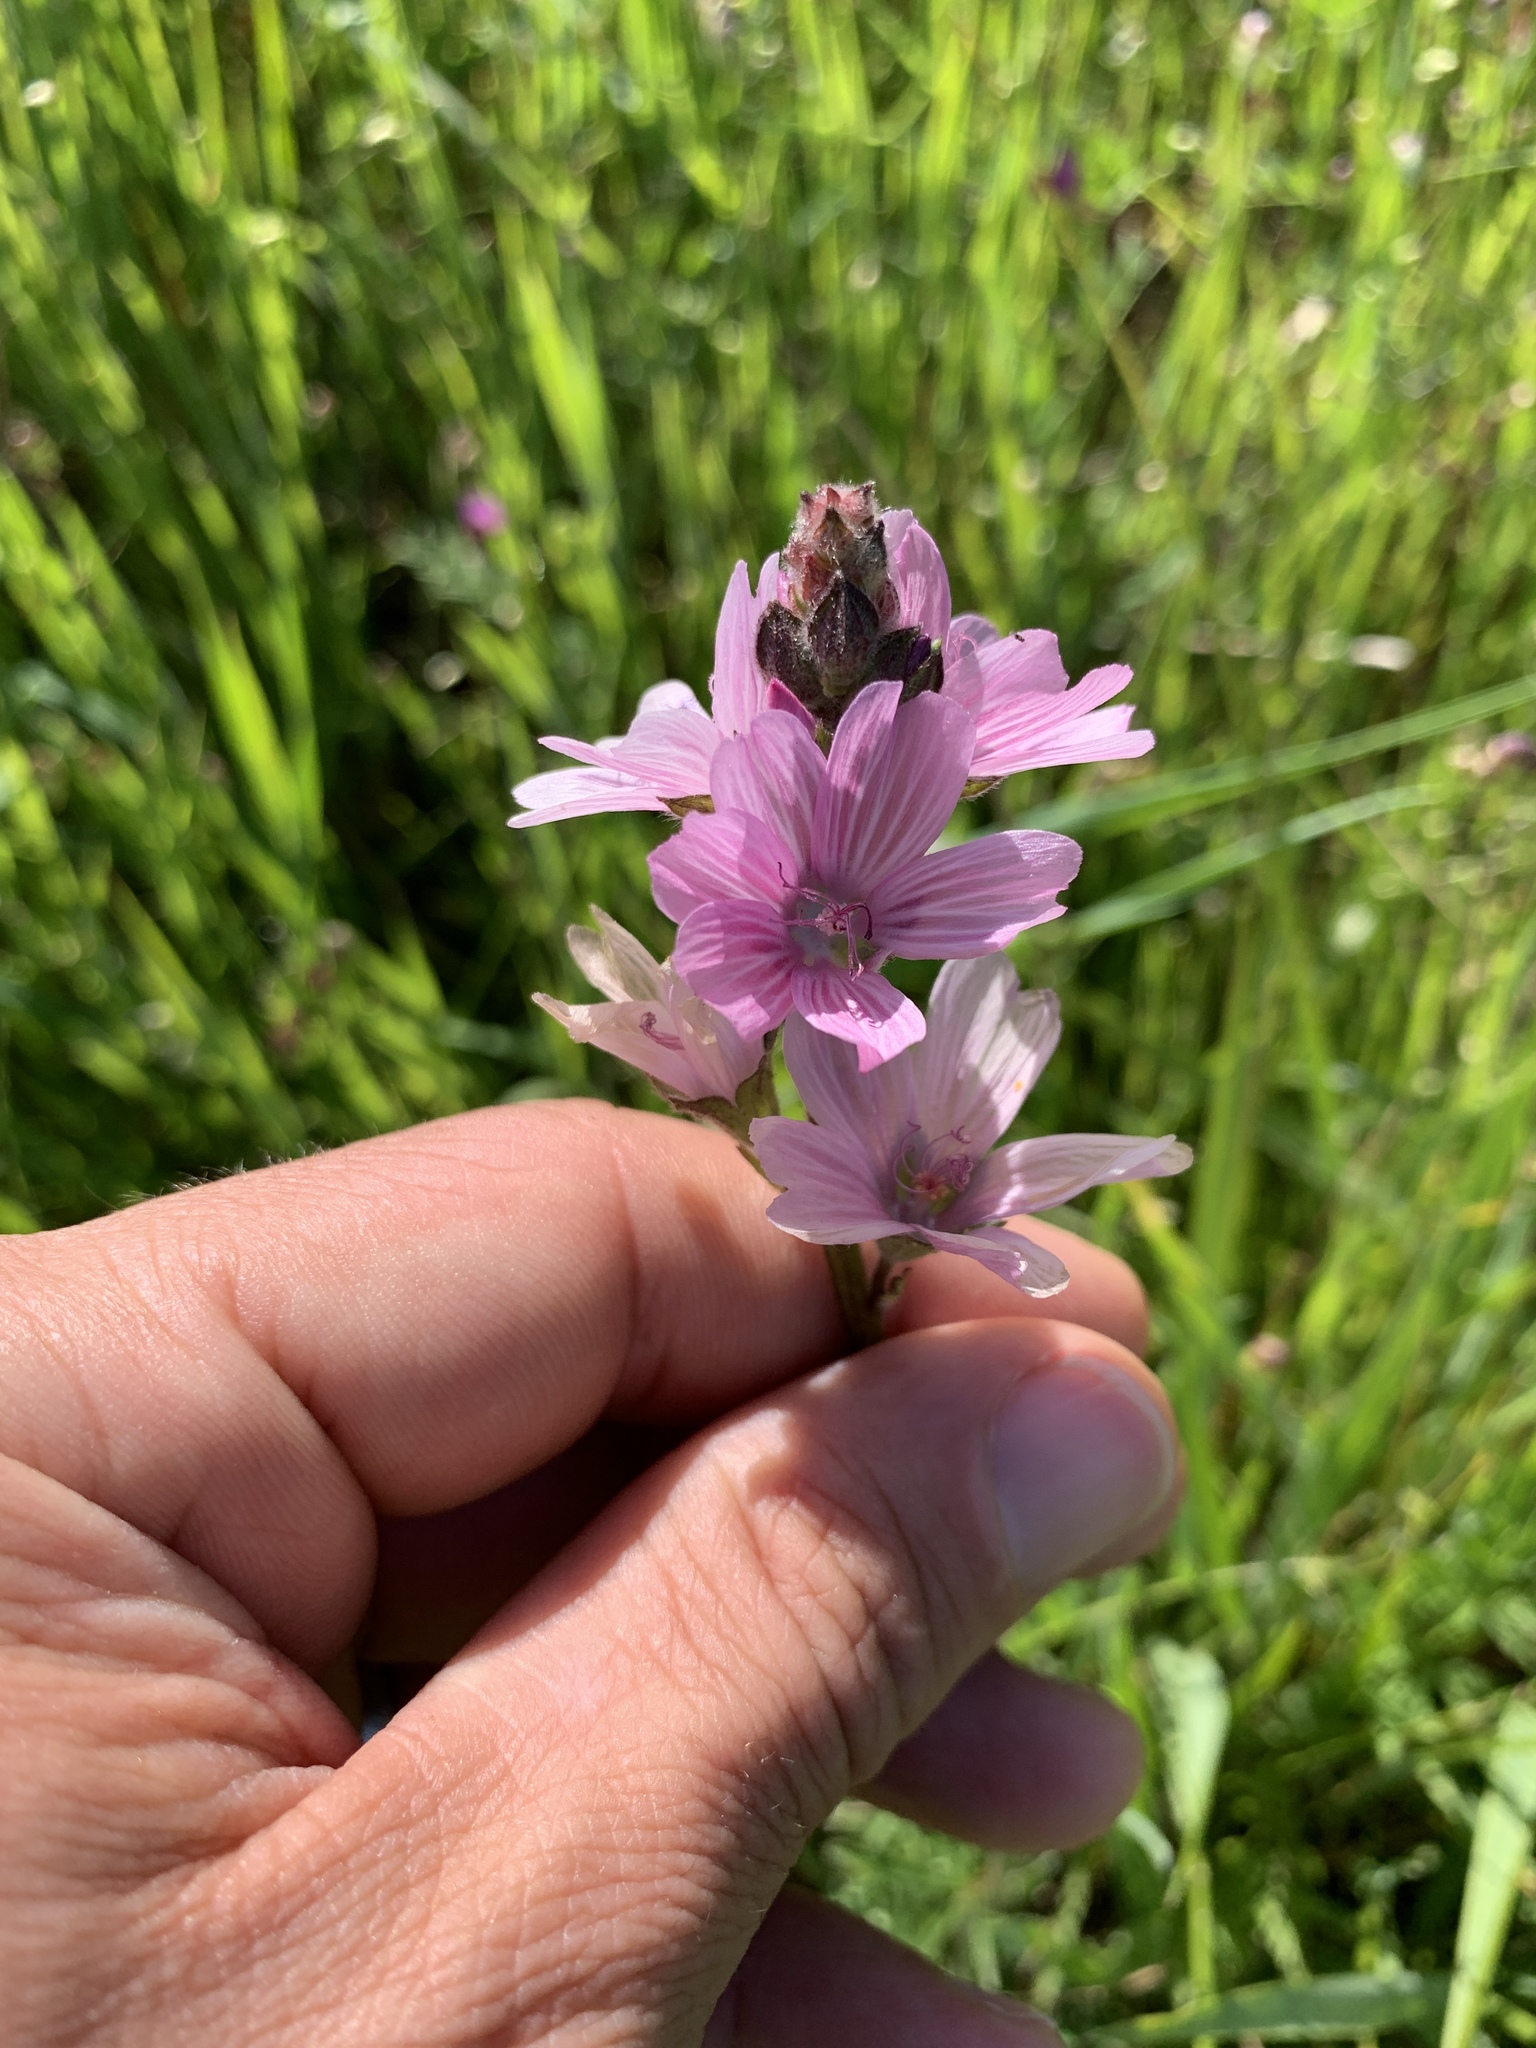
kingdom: Plantae
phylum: Tracheophyta
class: Magnoliopsida
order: Malvales
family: Malvaceae
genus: Sidalcea
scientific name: Sidalcea malviflora
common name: Greek mallow
